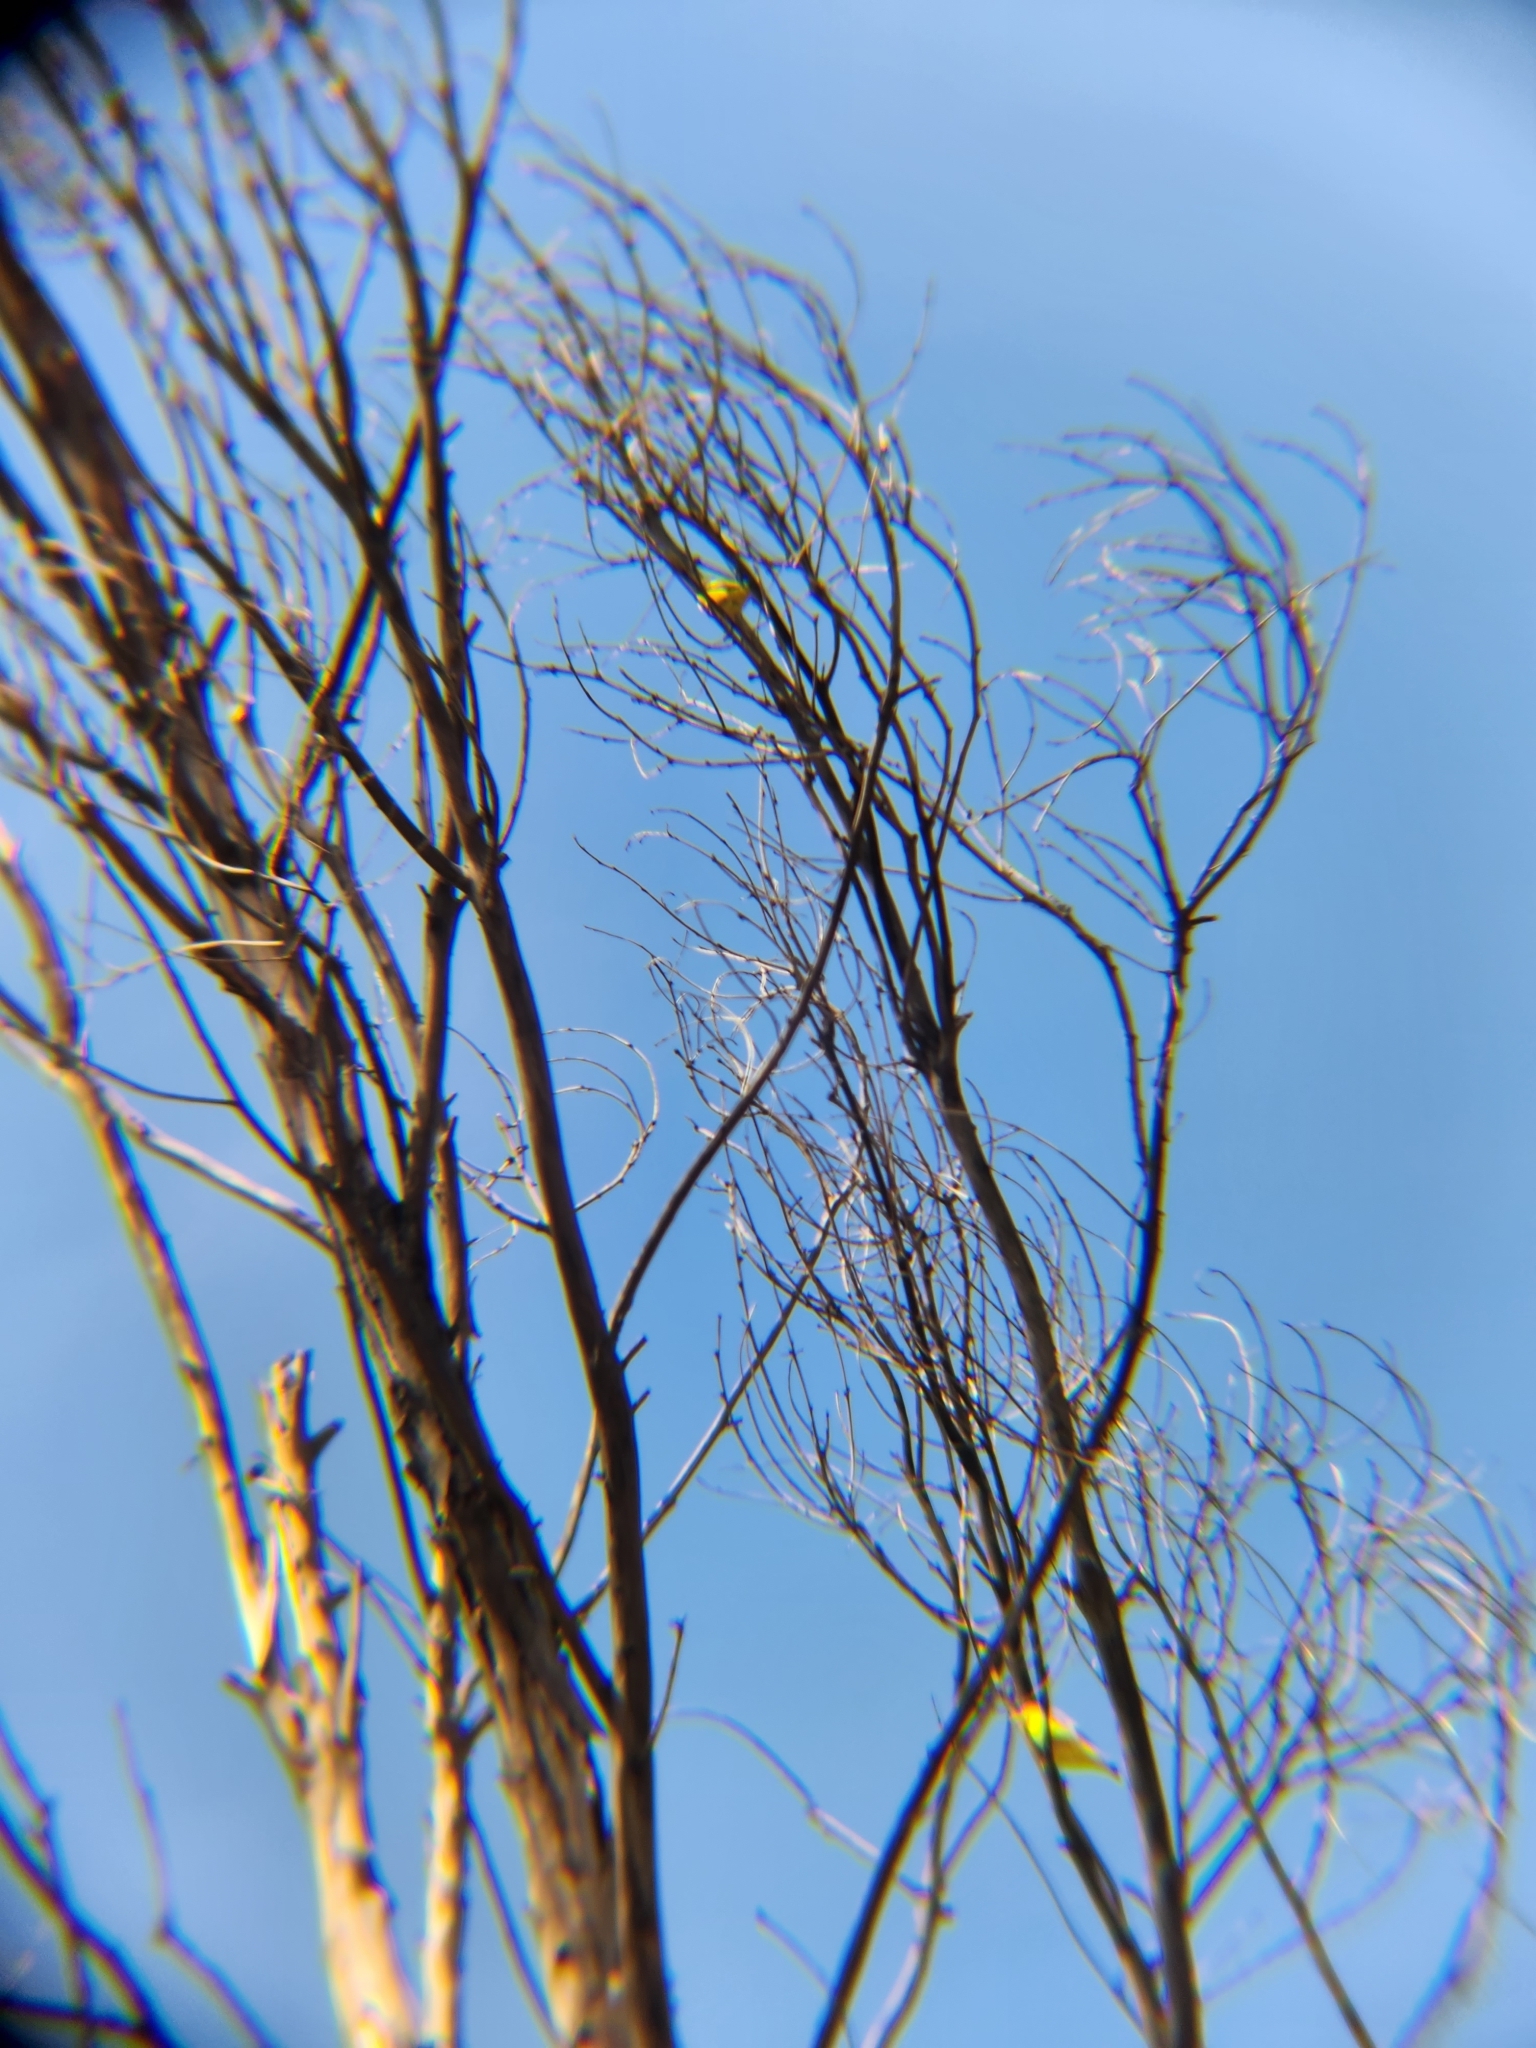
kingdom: Animalia
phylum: Chordata
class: Aves
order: Passeriformes
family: Fringillidae
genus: Spinus
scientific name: Spinus psaltria
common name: Lesser goldfinch
